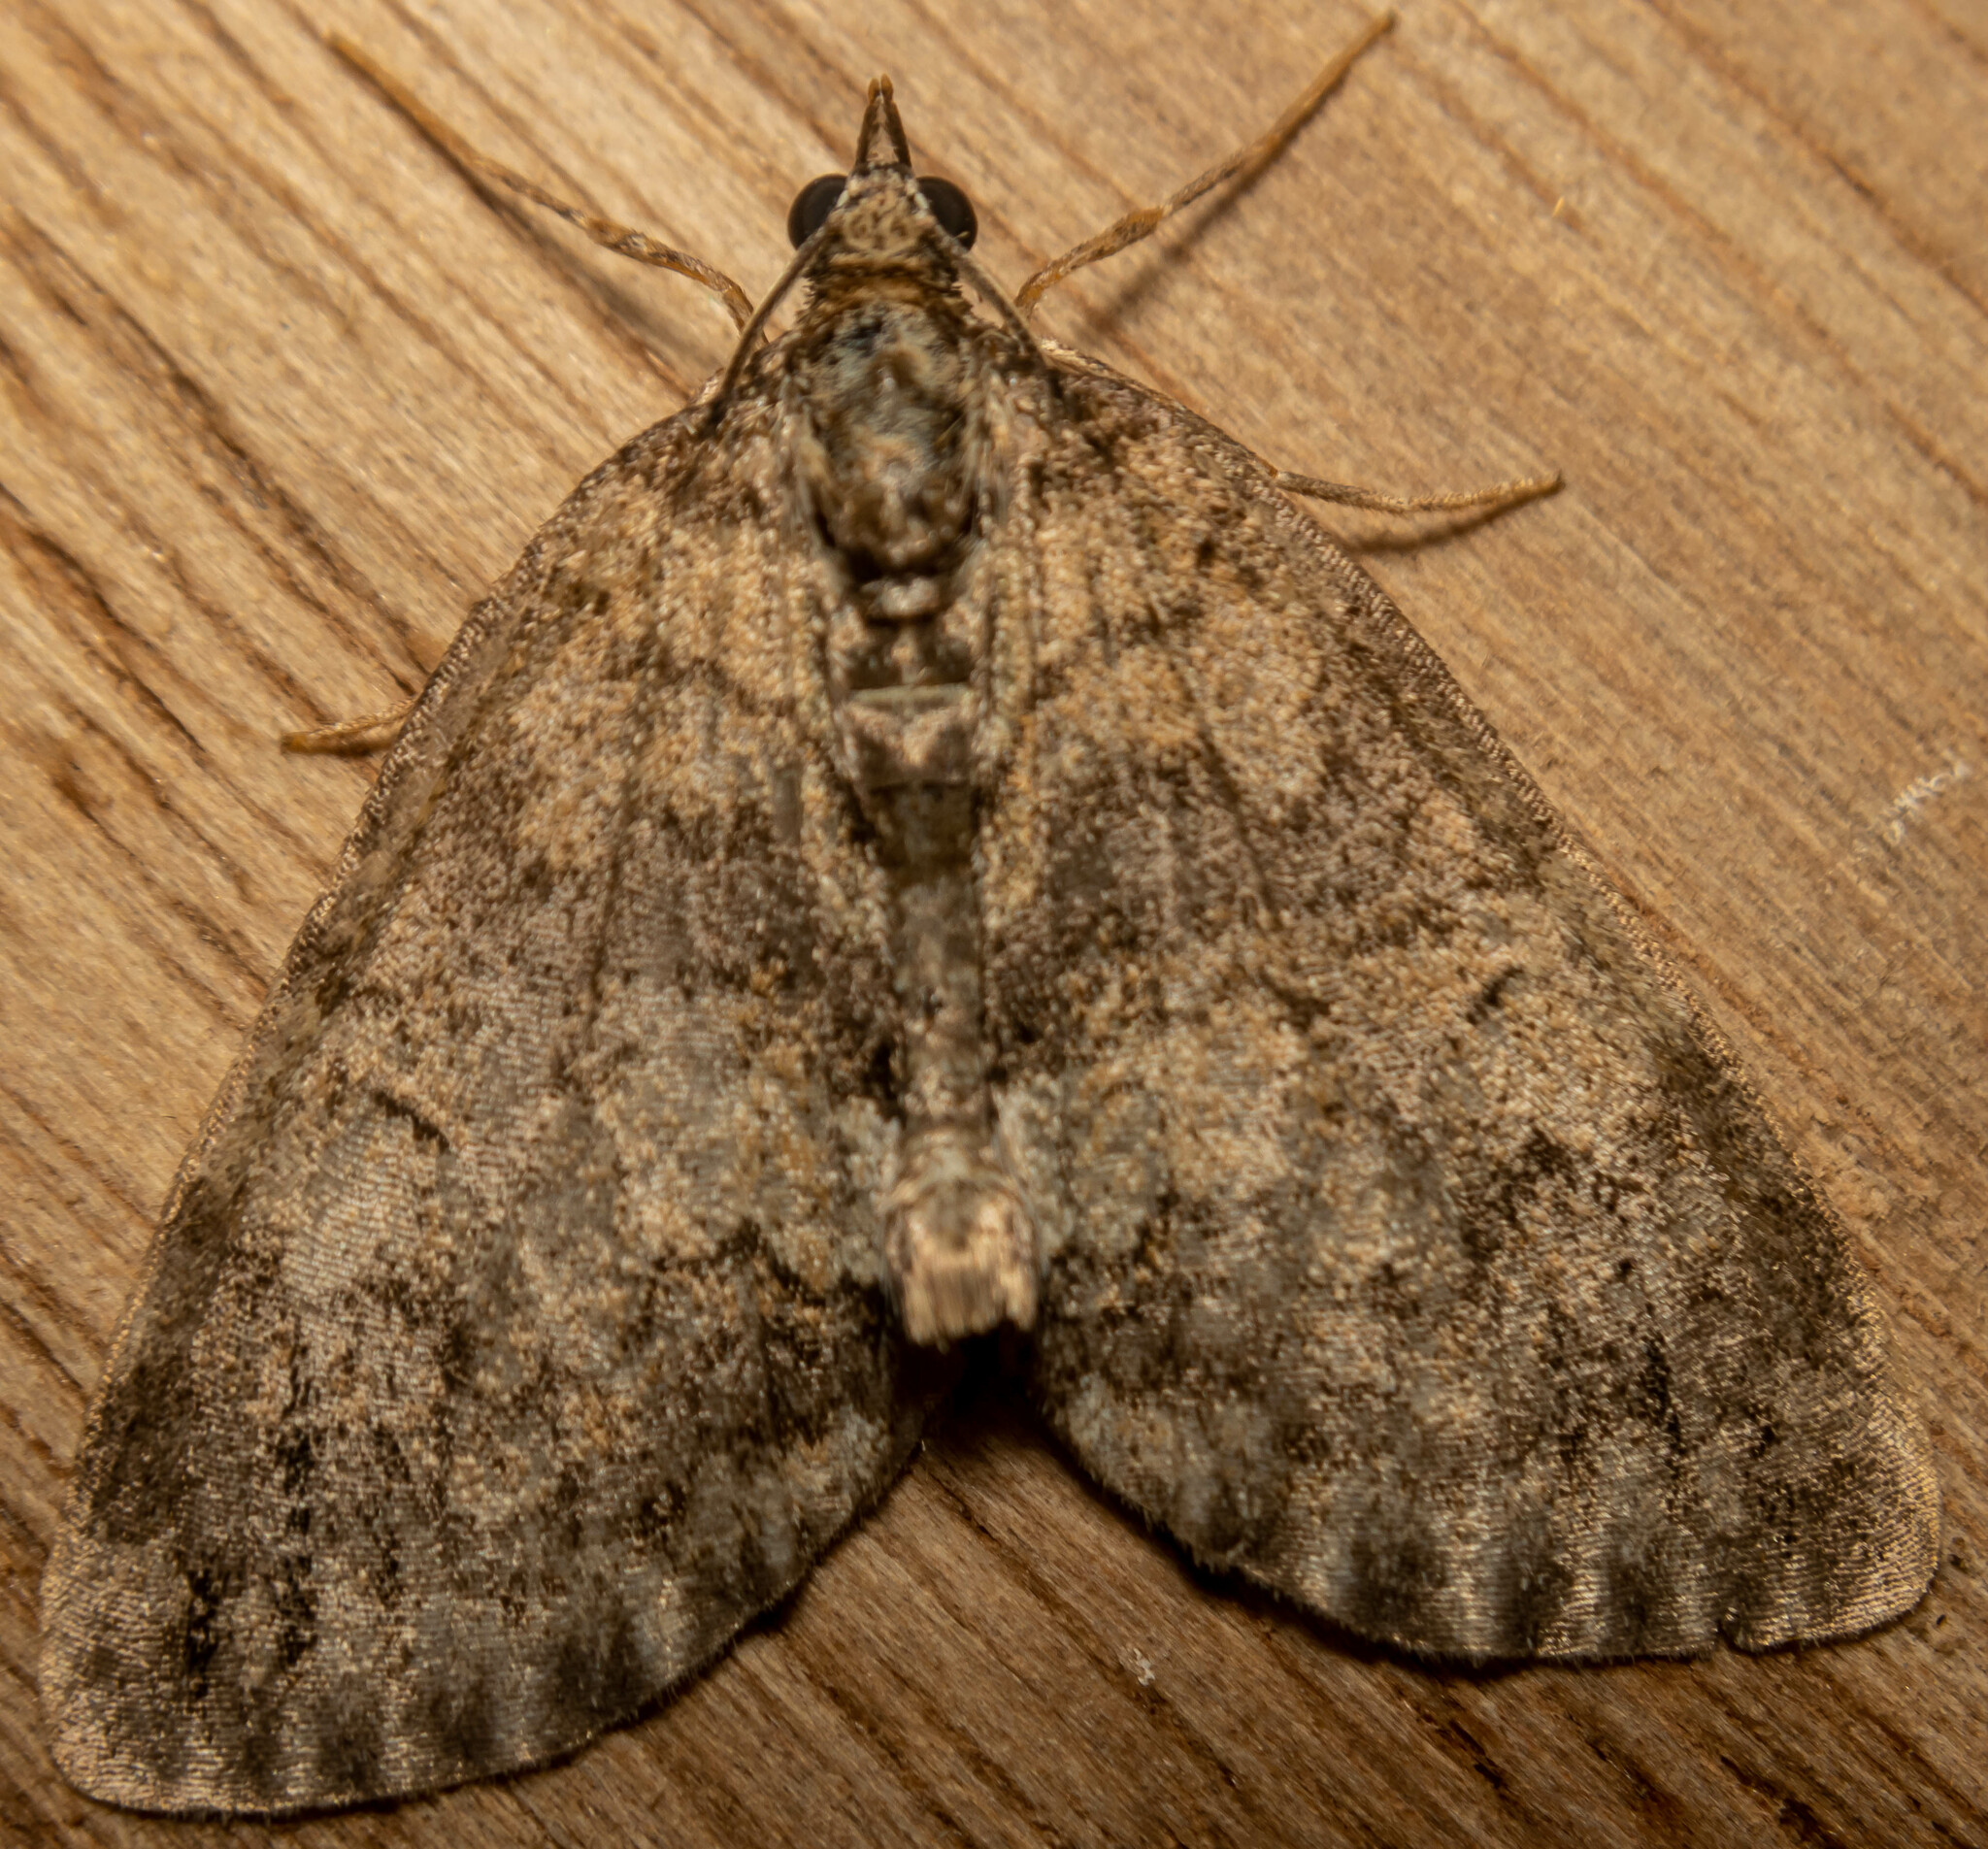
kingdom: Animalia
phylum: Arthropoda
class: Insecta
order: Lepidoptera
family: Geometridae
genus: Hydriomena
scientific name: Hydriomena impluviata
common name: May highflyer
